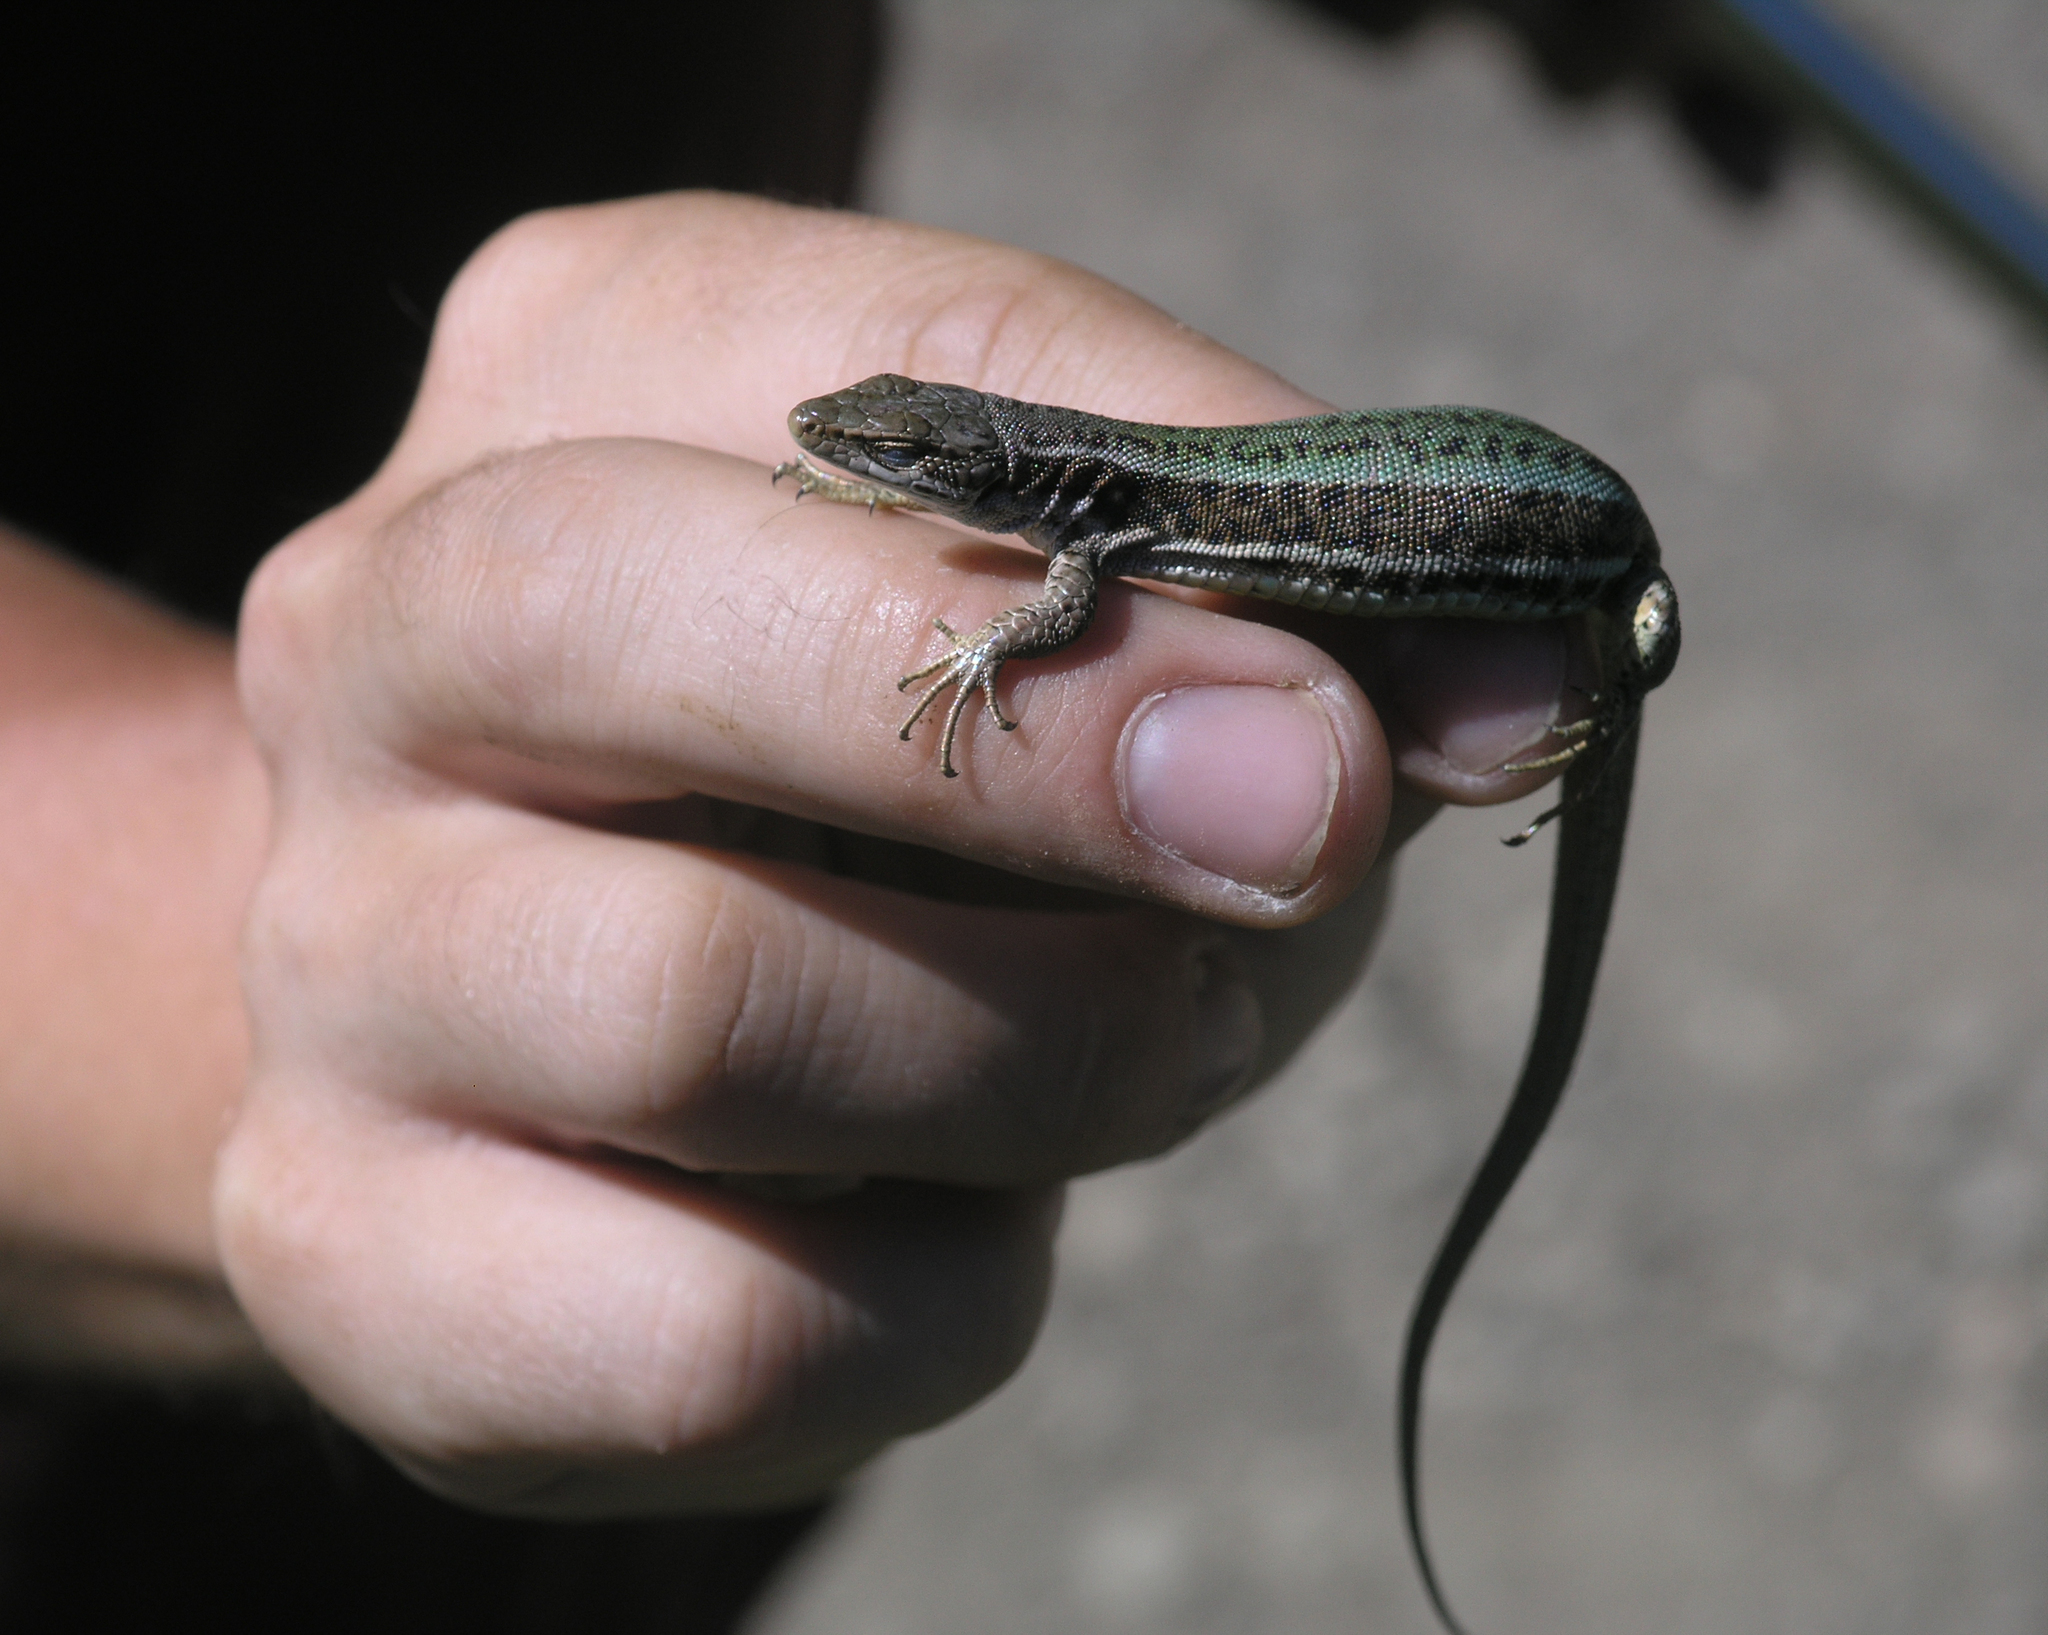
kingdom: Animalia
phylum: Chordata
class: Squamata
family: Lacertidae
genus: Darevskia
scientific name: Darevskia praticola
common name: Meadow lizard
